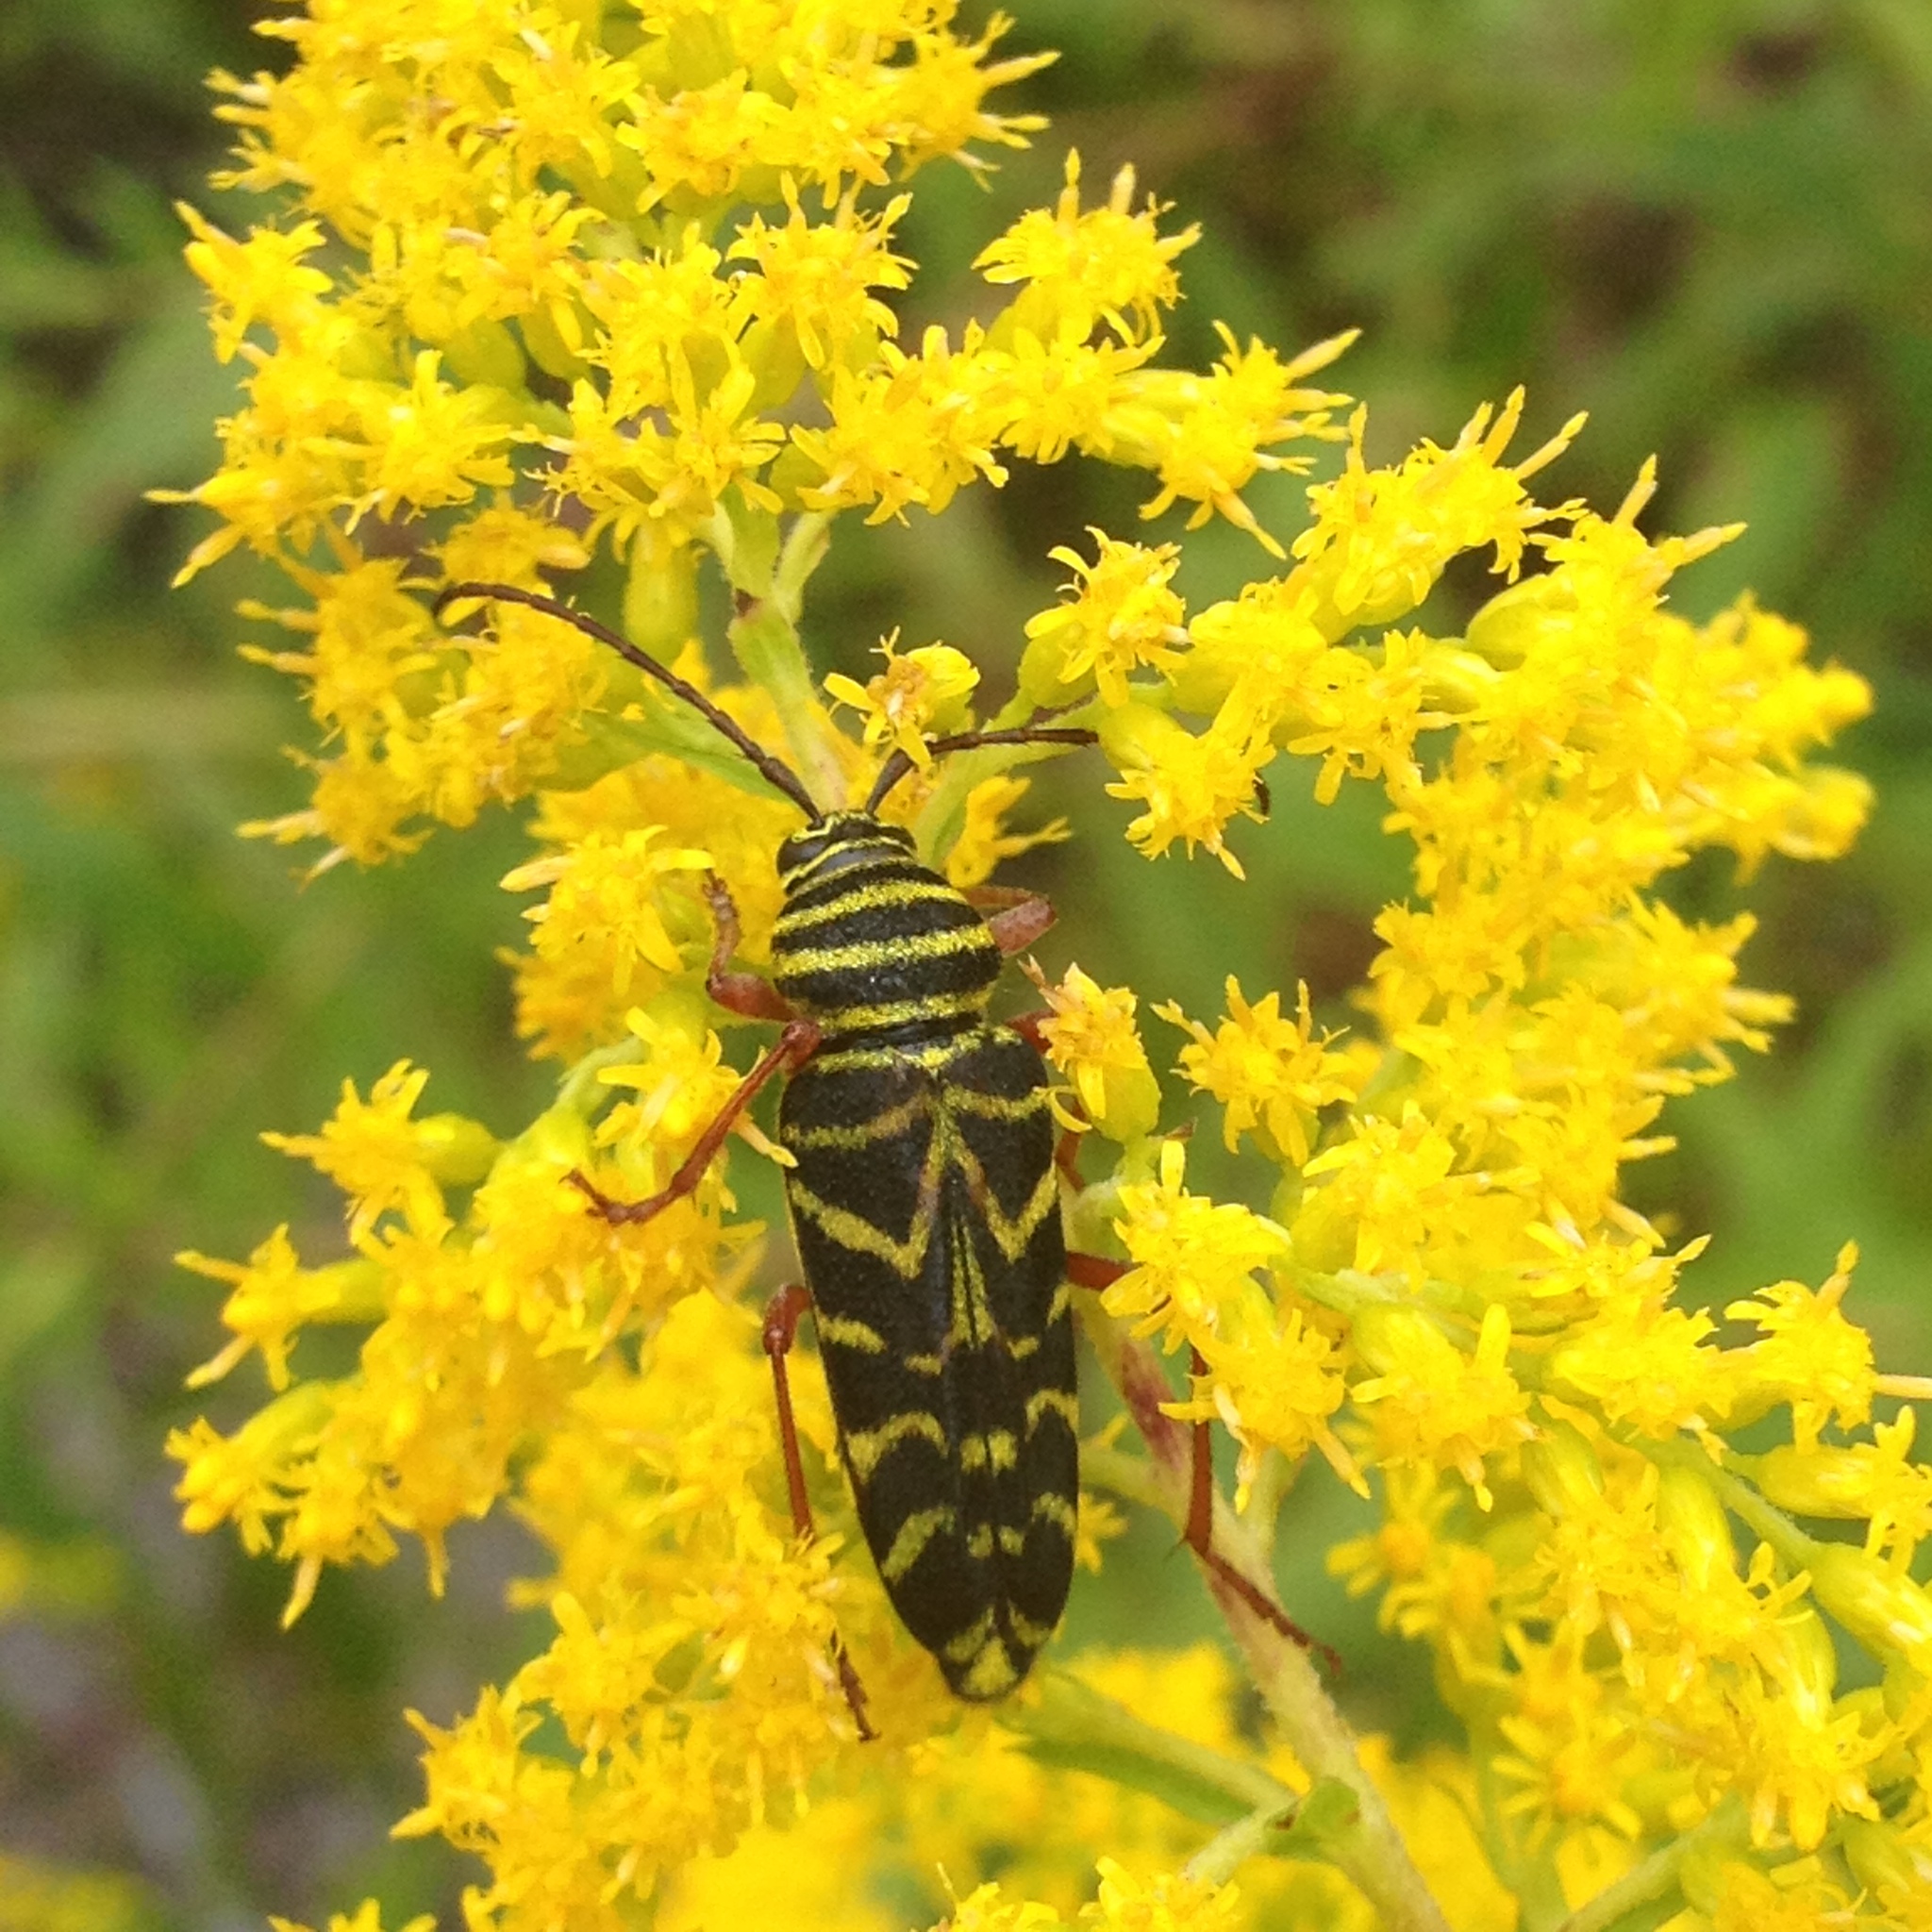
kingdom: Animalia
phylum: Arthropoda
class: Insecta
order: Coleoptera
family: Cerambycidae
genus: Megacyllene
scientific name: Megacyllene robiniae
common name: Locust borer
